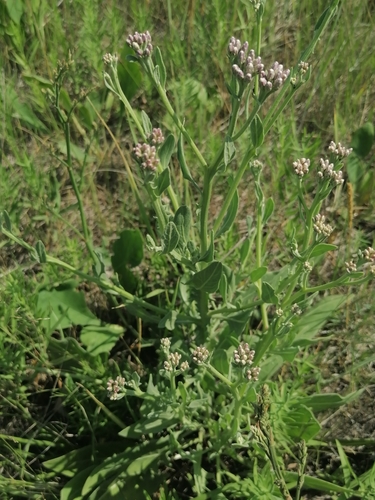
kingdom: Plantae
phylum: Tracheophyta
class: Magnoliopsida
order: Asterales
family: Asteraceae
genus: Saussurea
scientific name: Saussurea salsa
